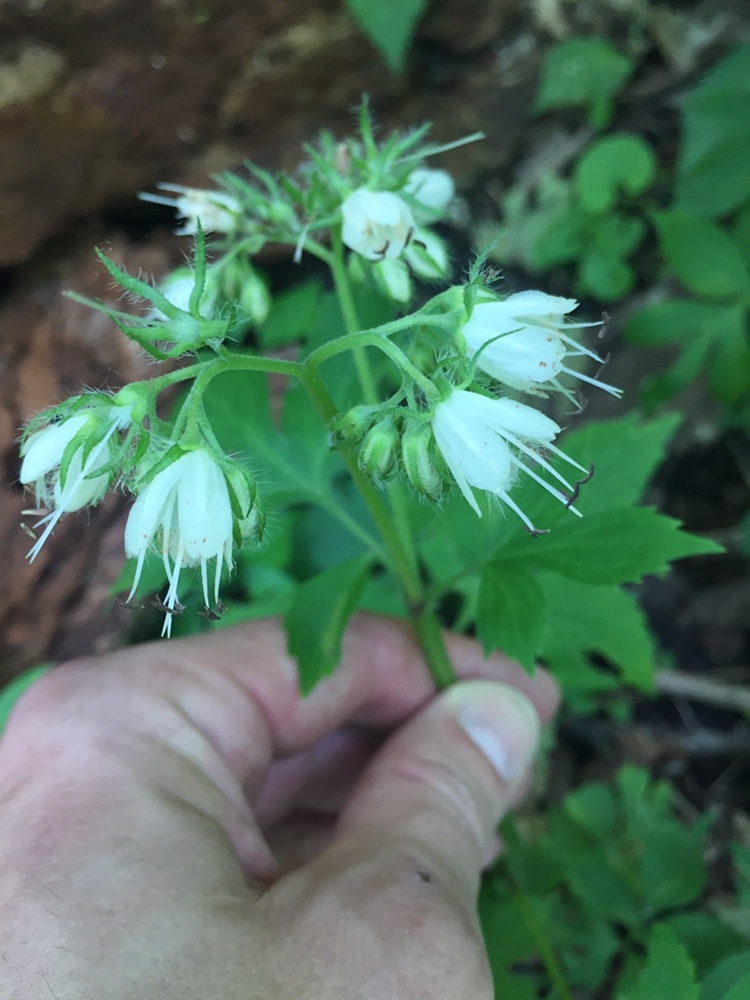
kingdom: Plantae
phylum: Tracheophyta
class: Magnoliopsida
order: Boraginales
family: Hydrophyllaceae
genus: Hydrophyllum
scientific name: Hydrophyllum virginianum
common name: Virginia waterleaf
